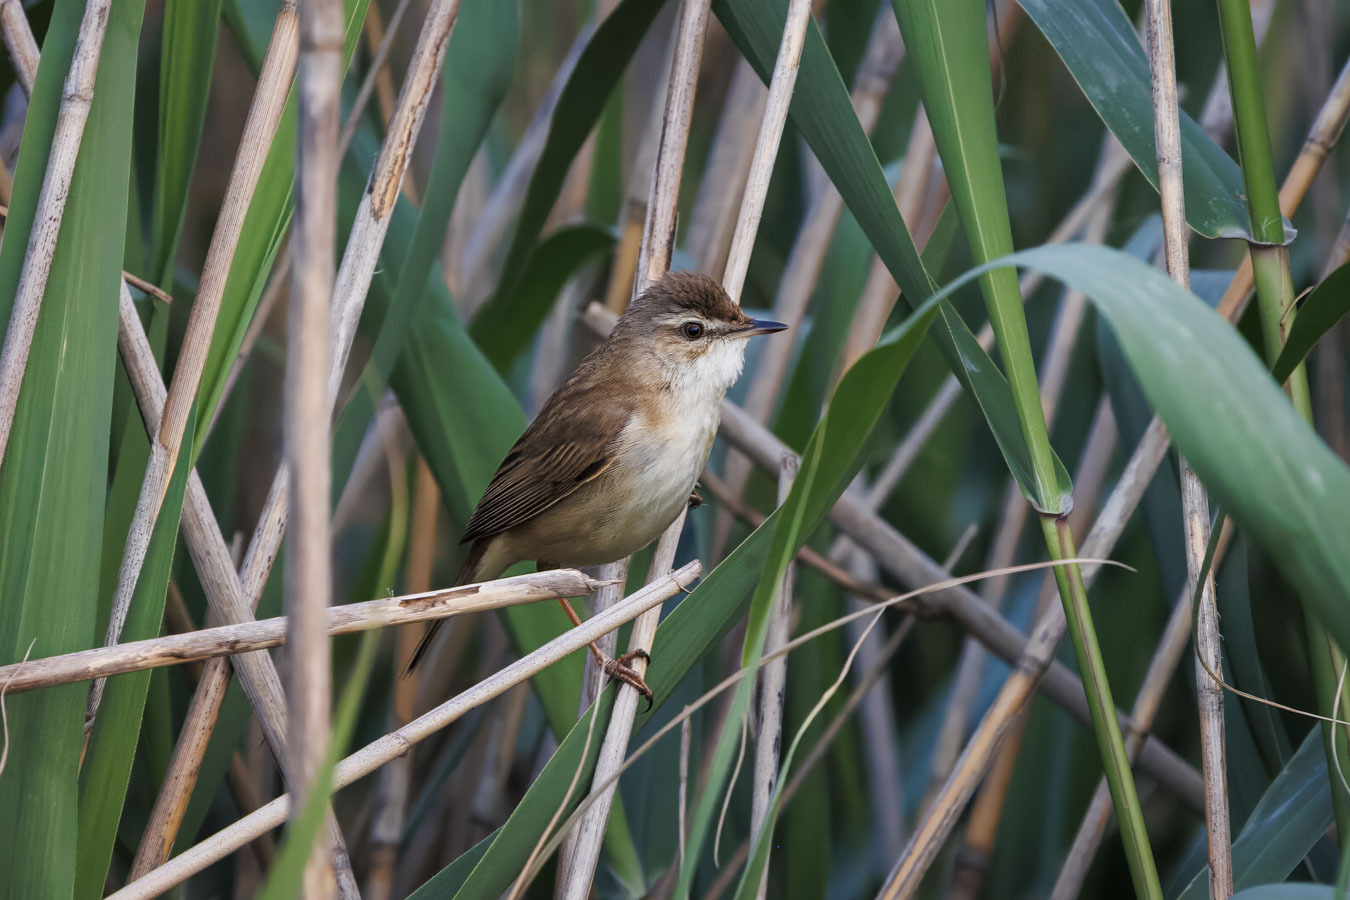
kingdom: Animalia
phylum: Chordata
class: Aves
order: Passeriformes
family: Acrocephalidae
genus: Acrocephalus
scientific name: Acrocephalus agricola
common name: Paddyfield warbler
